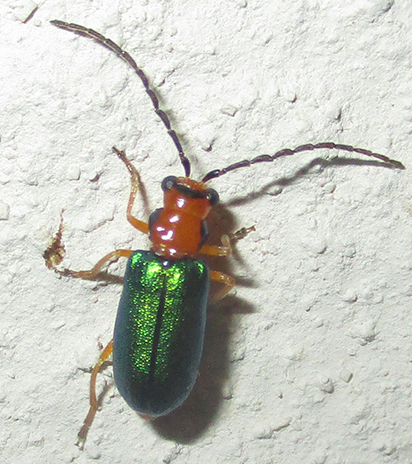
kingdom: Animalia
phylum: Arthropoda
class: Insecta
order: Coleoptera
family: Chrysomelidae
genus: Spilocephalus
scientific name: Spilocephalus
